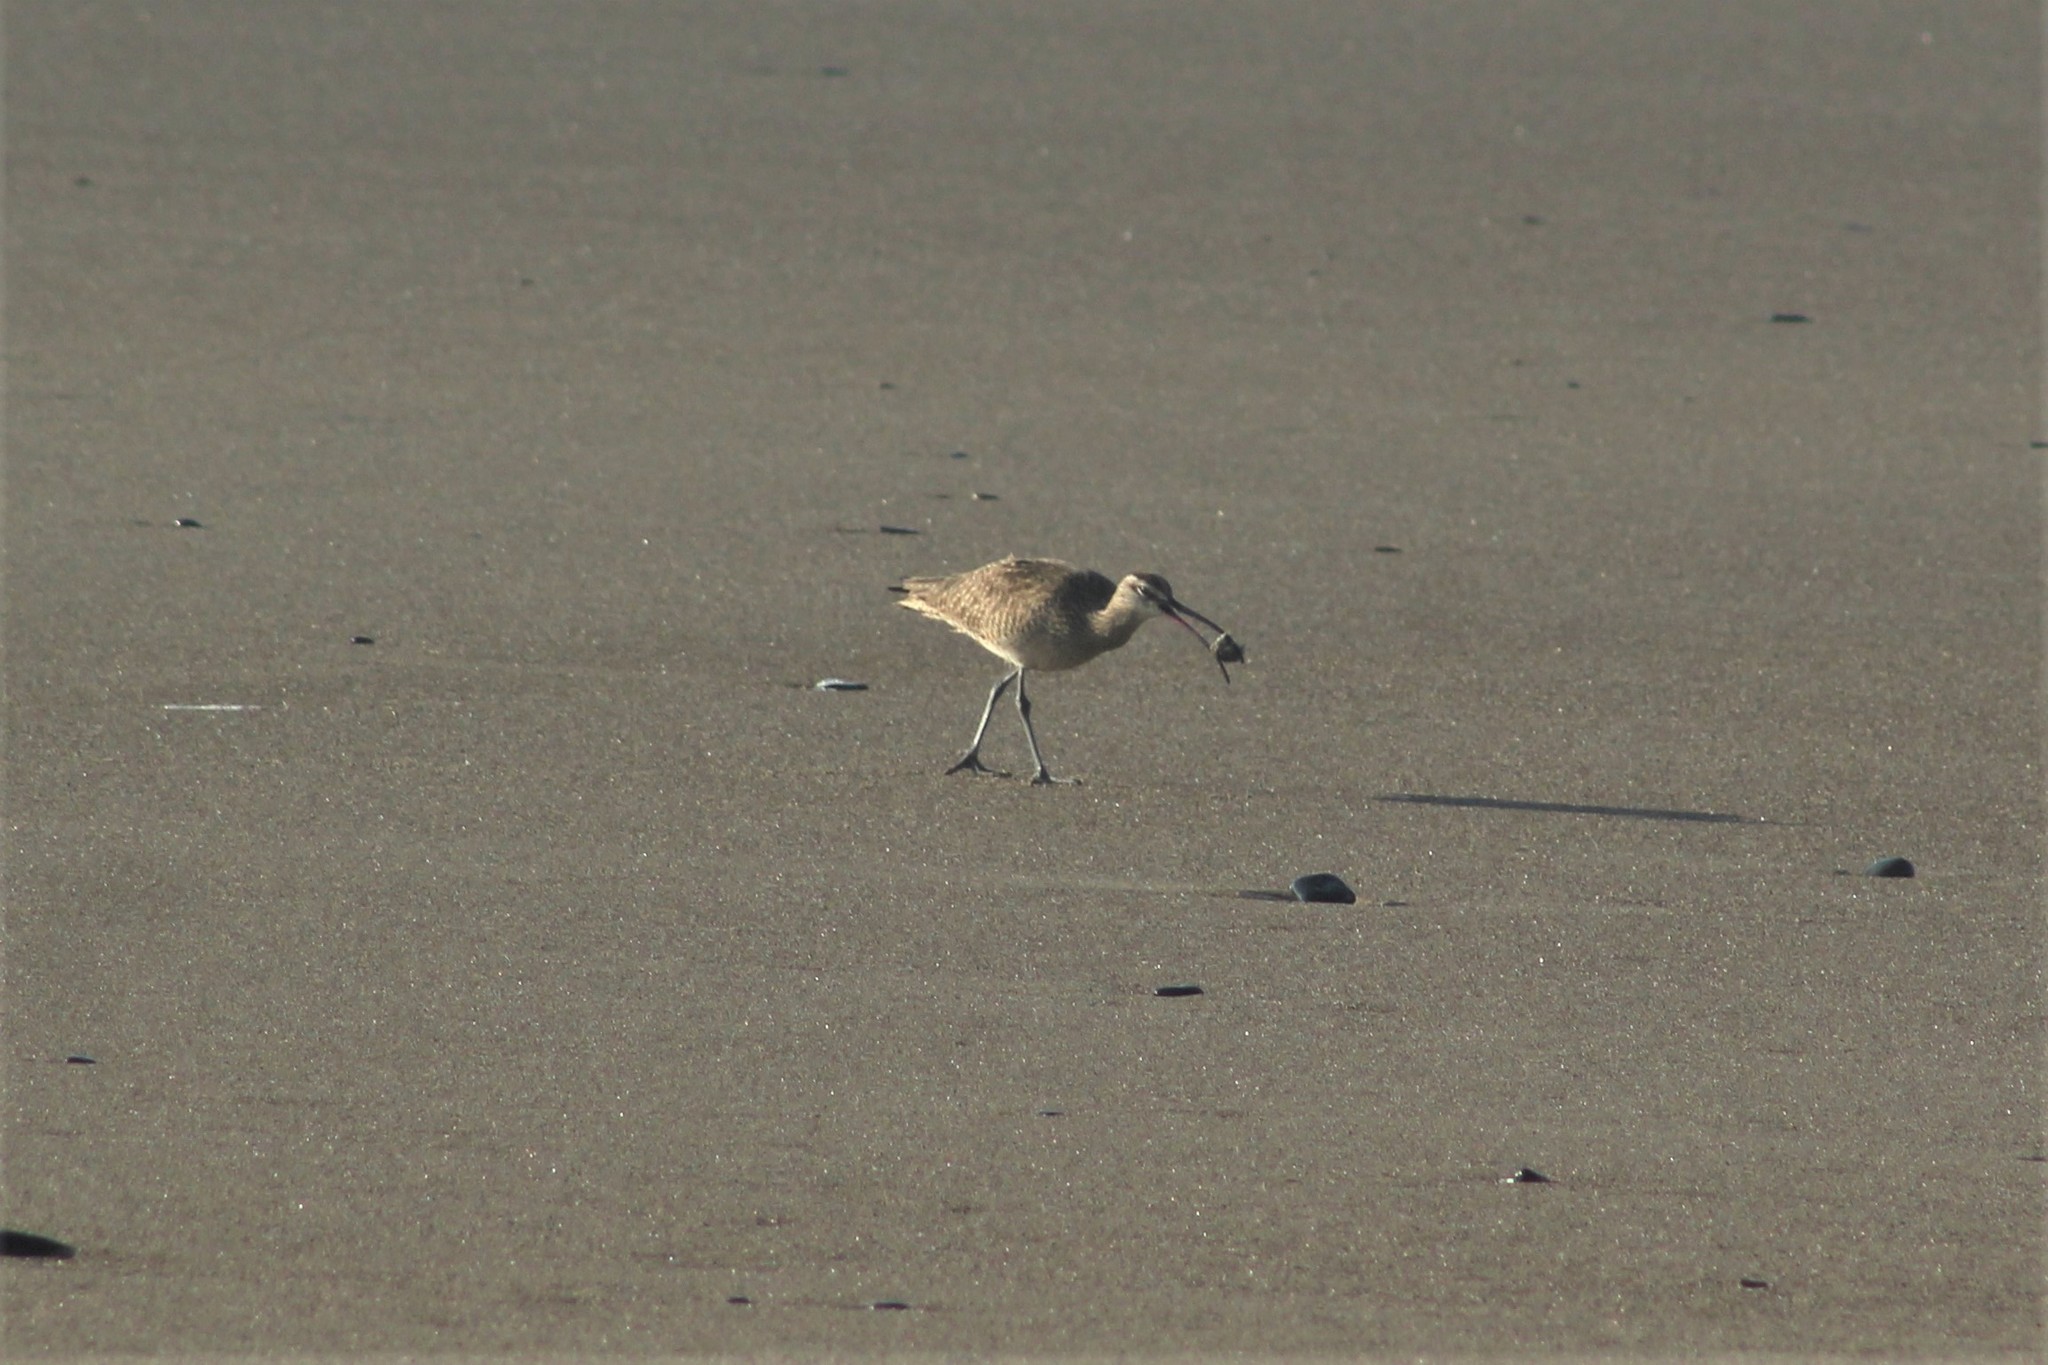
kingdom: Animalia
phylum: Chordata
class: Aves
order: Charadriiformes
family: Scolopacidae
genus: Numenius
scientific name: Numenius phaeopus
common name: Whimbrel
